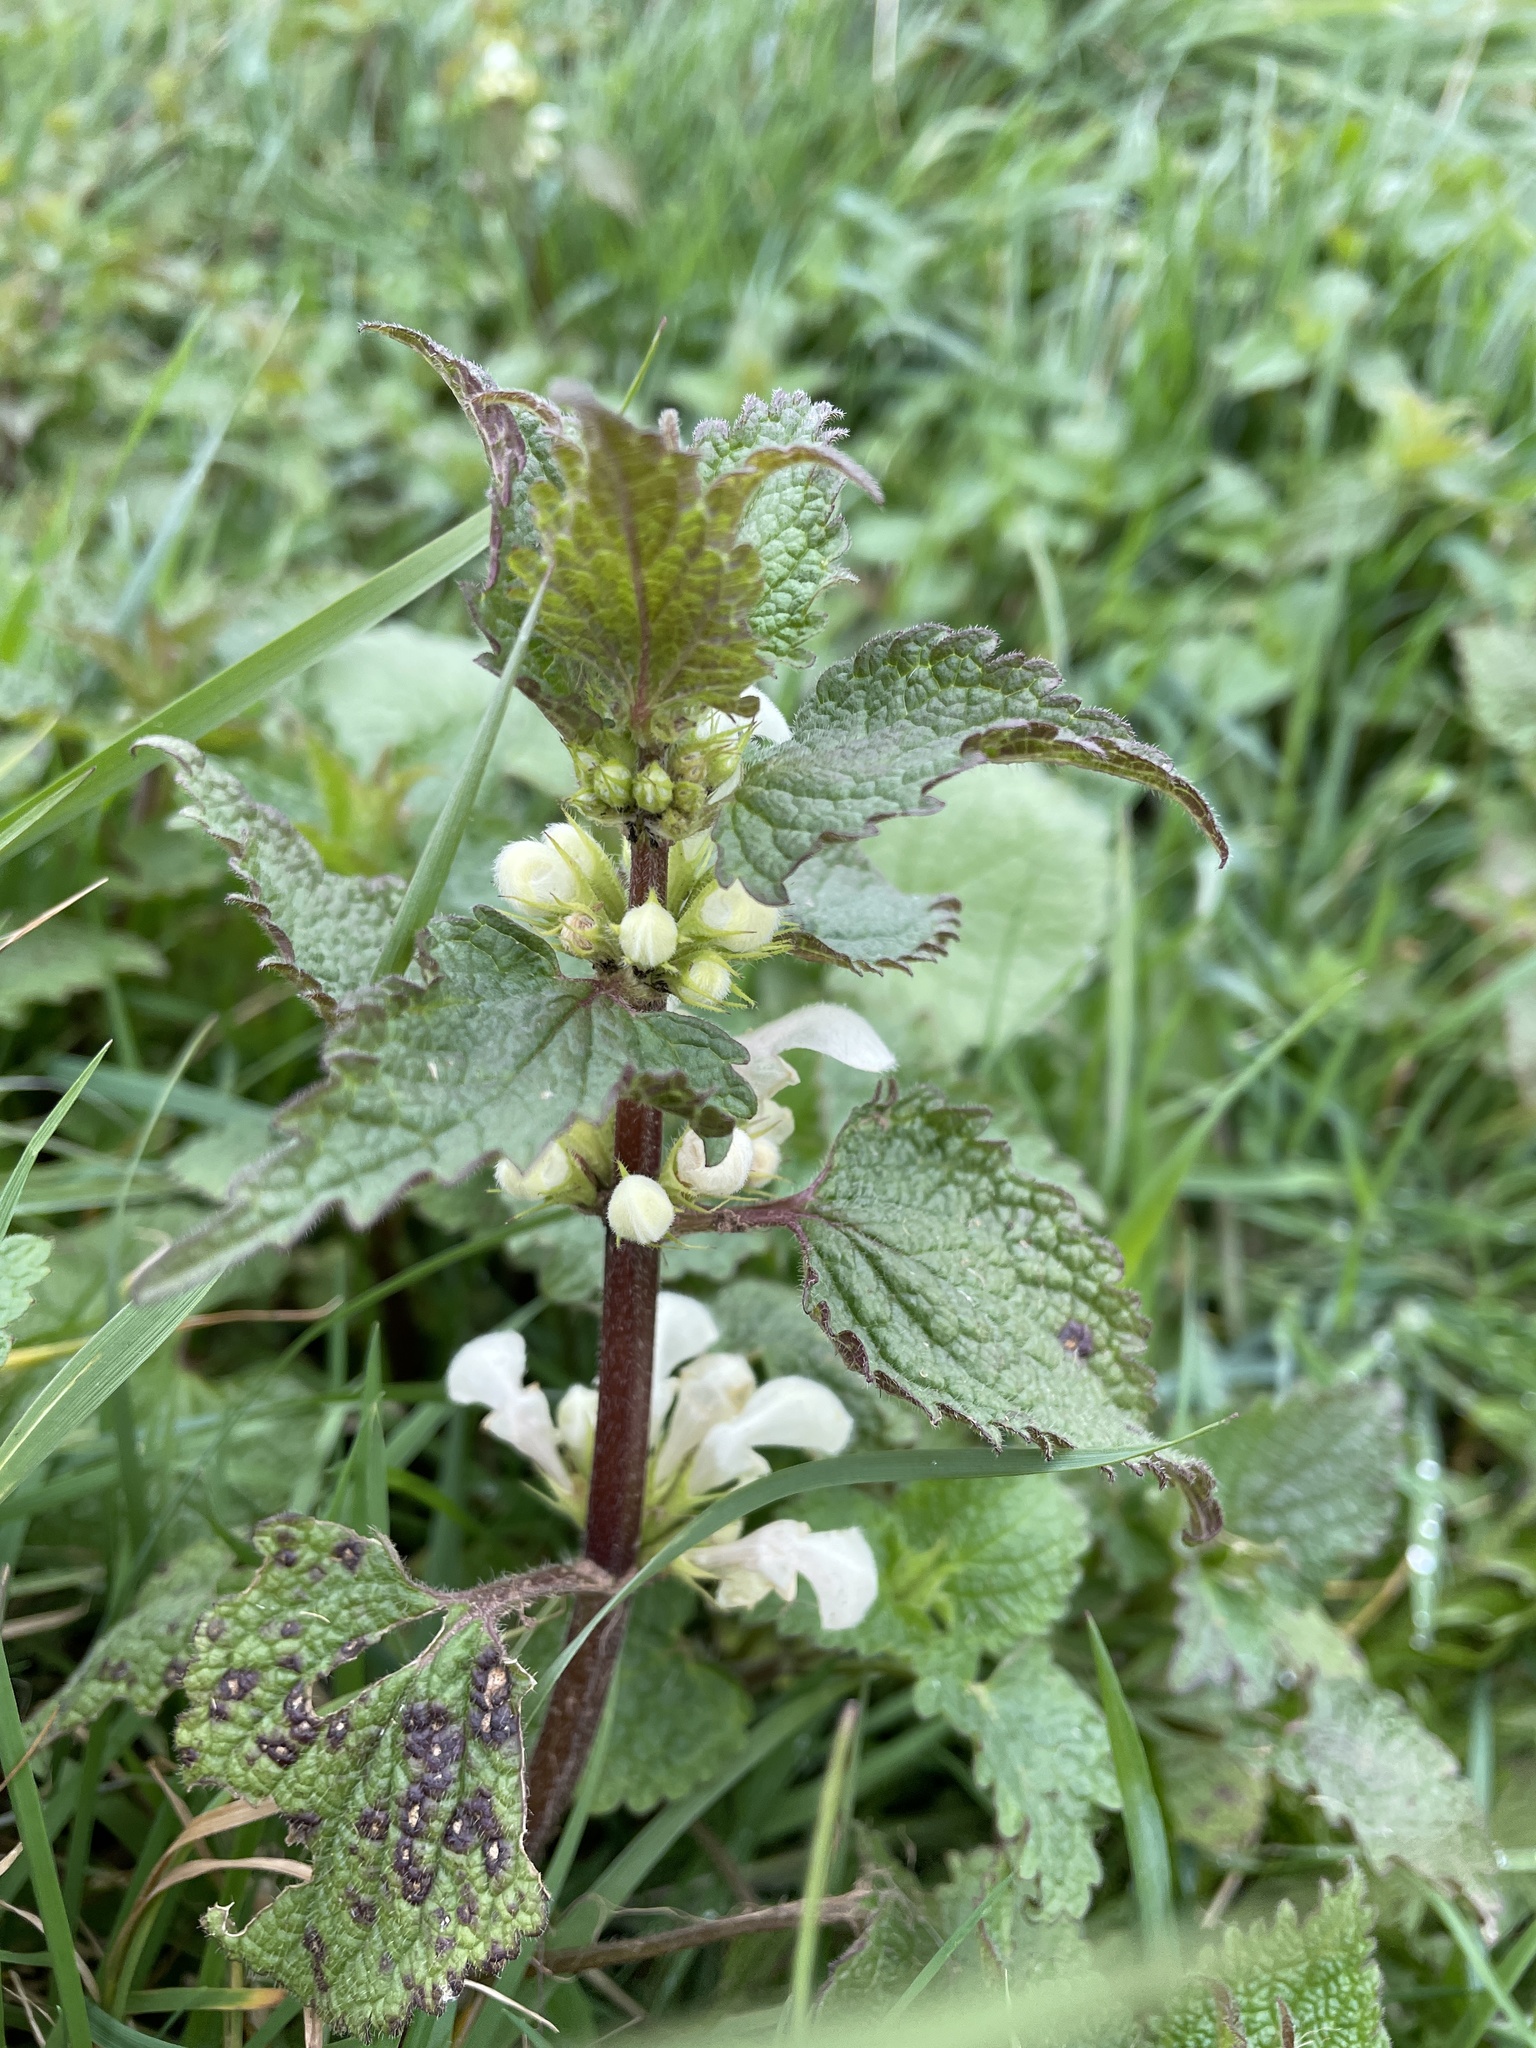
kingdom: Plantae
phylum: Tracheophyta
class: Magnoliopsida
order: Lamiales
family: Lamiaceae
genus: Lamium
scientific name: Lamium album
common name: White dead-nettle
